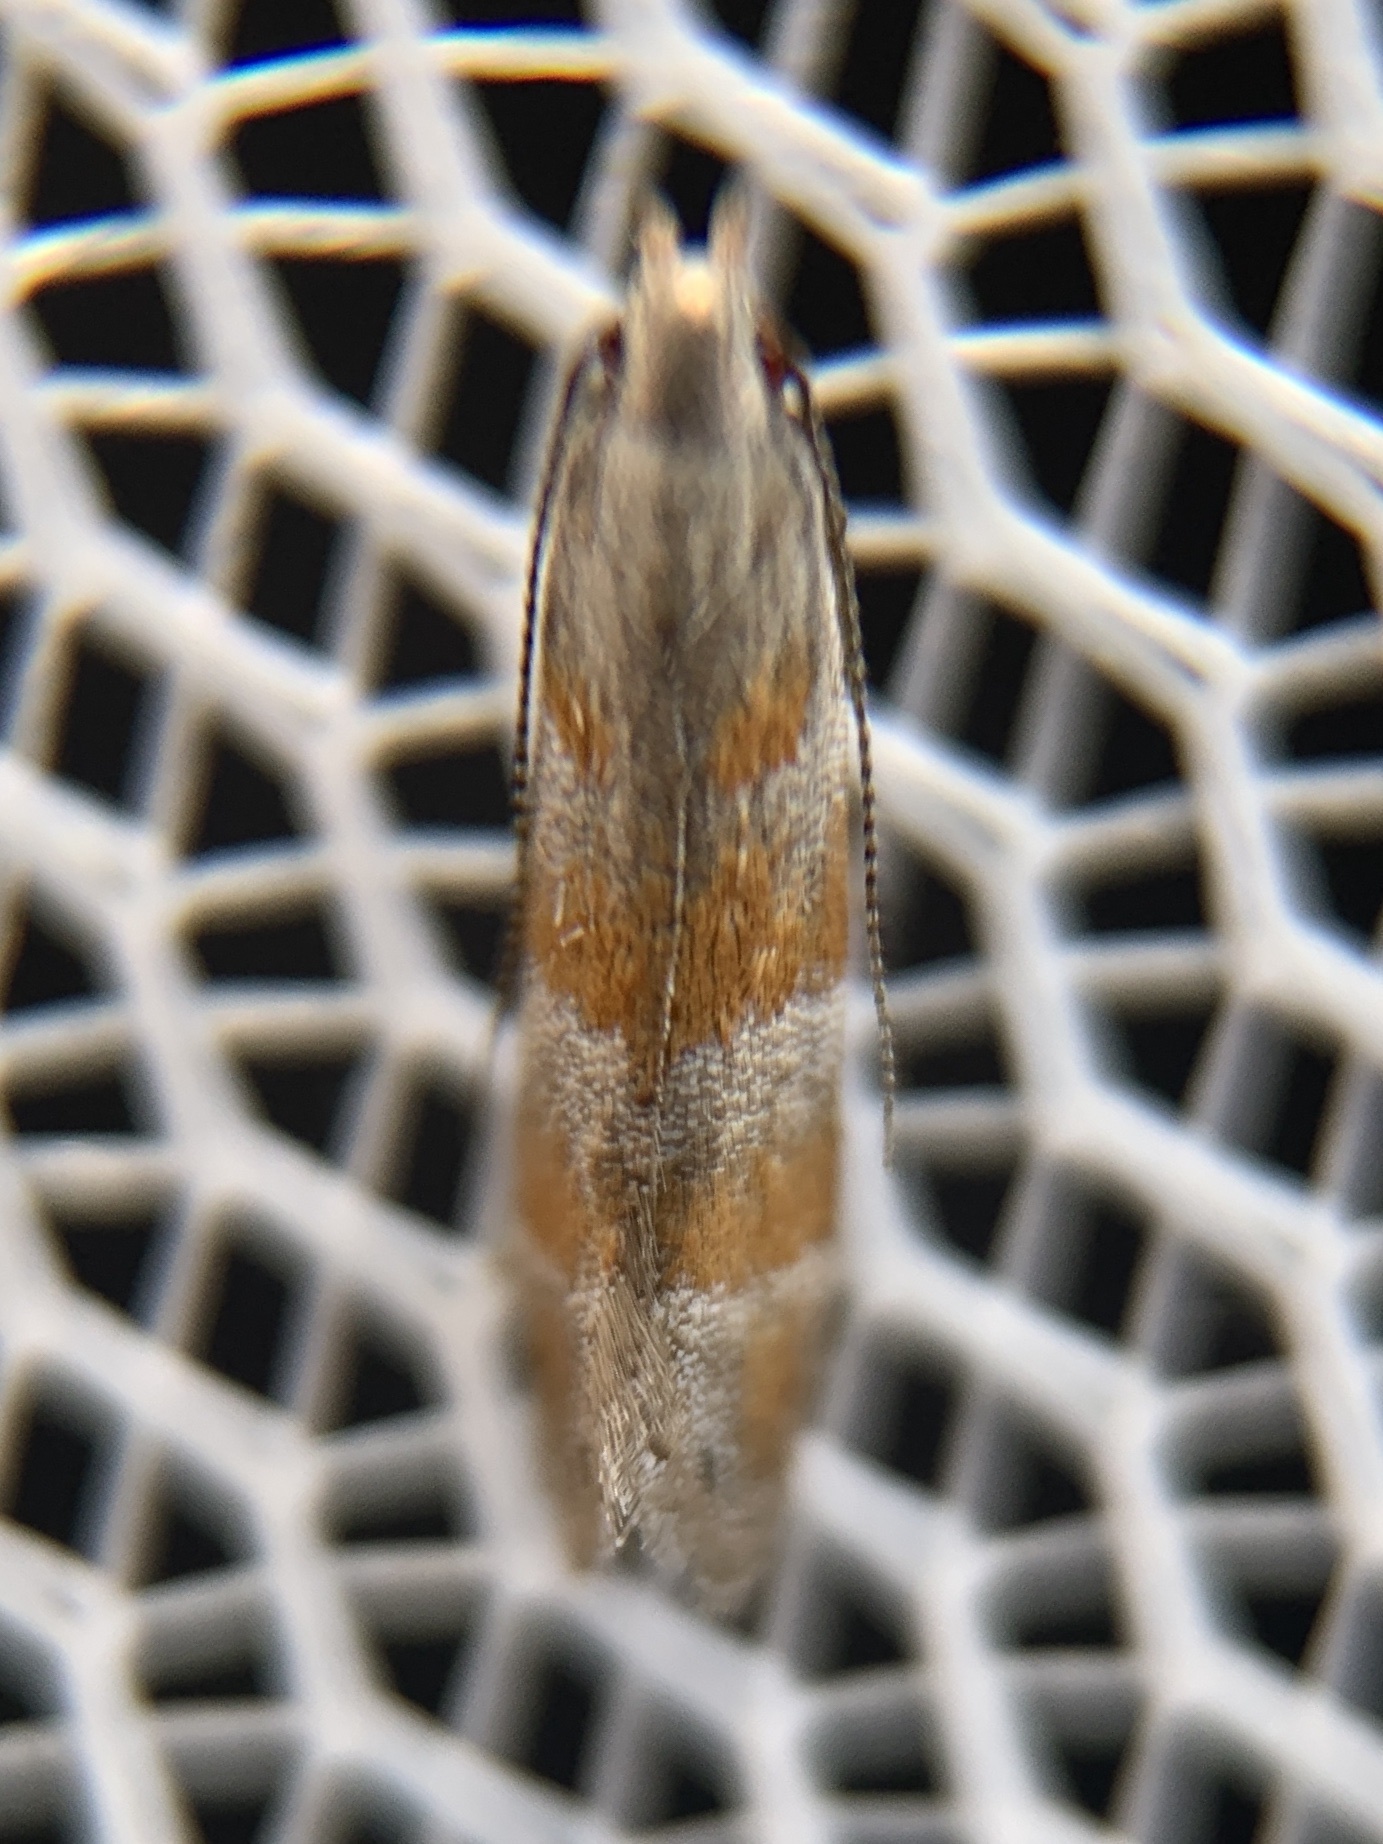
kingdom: Animalia
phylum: Arthropoda
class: Insecta
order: Lepidoptera
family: Gelechiidae
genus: Battaristis
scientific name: Battaristis vittella
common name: Orange stripe-backed moth
